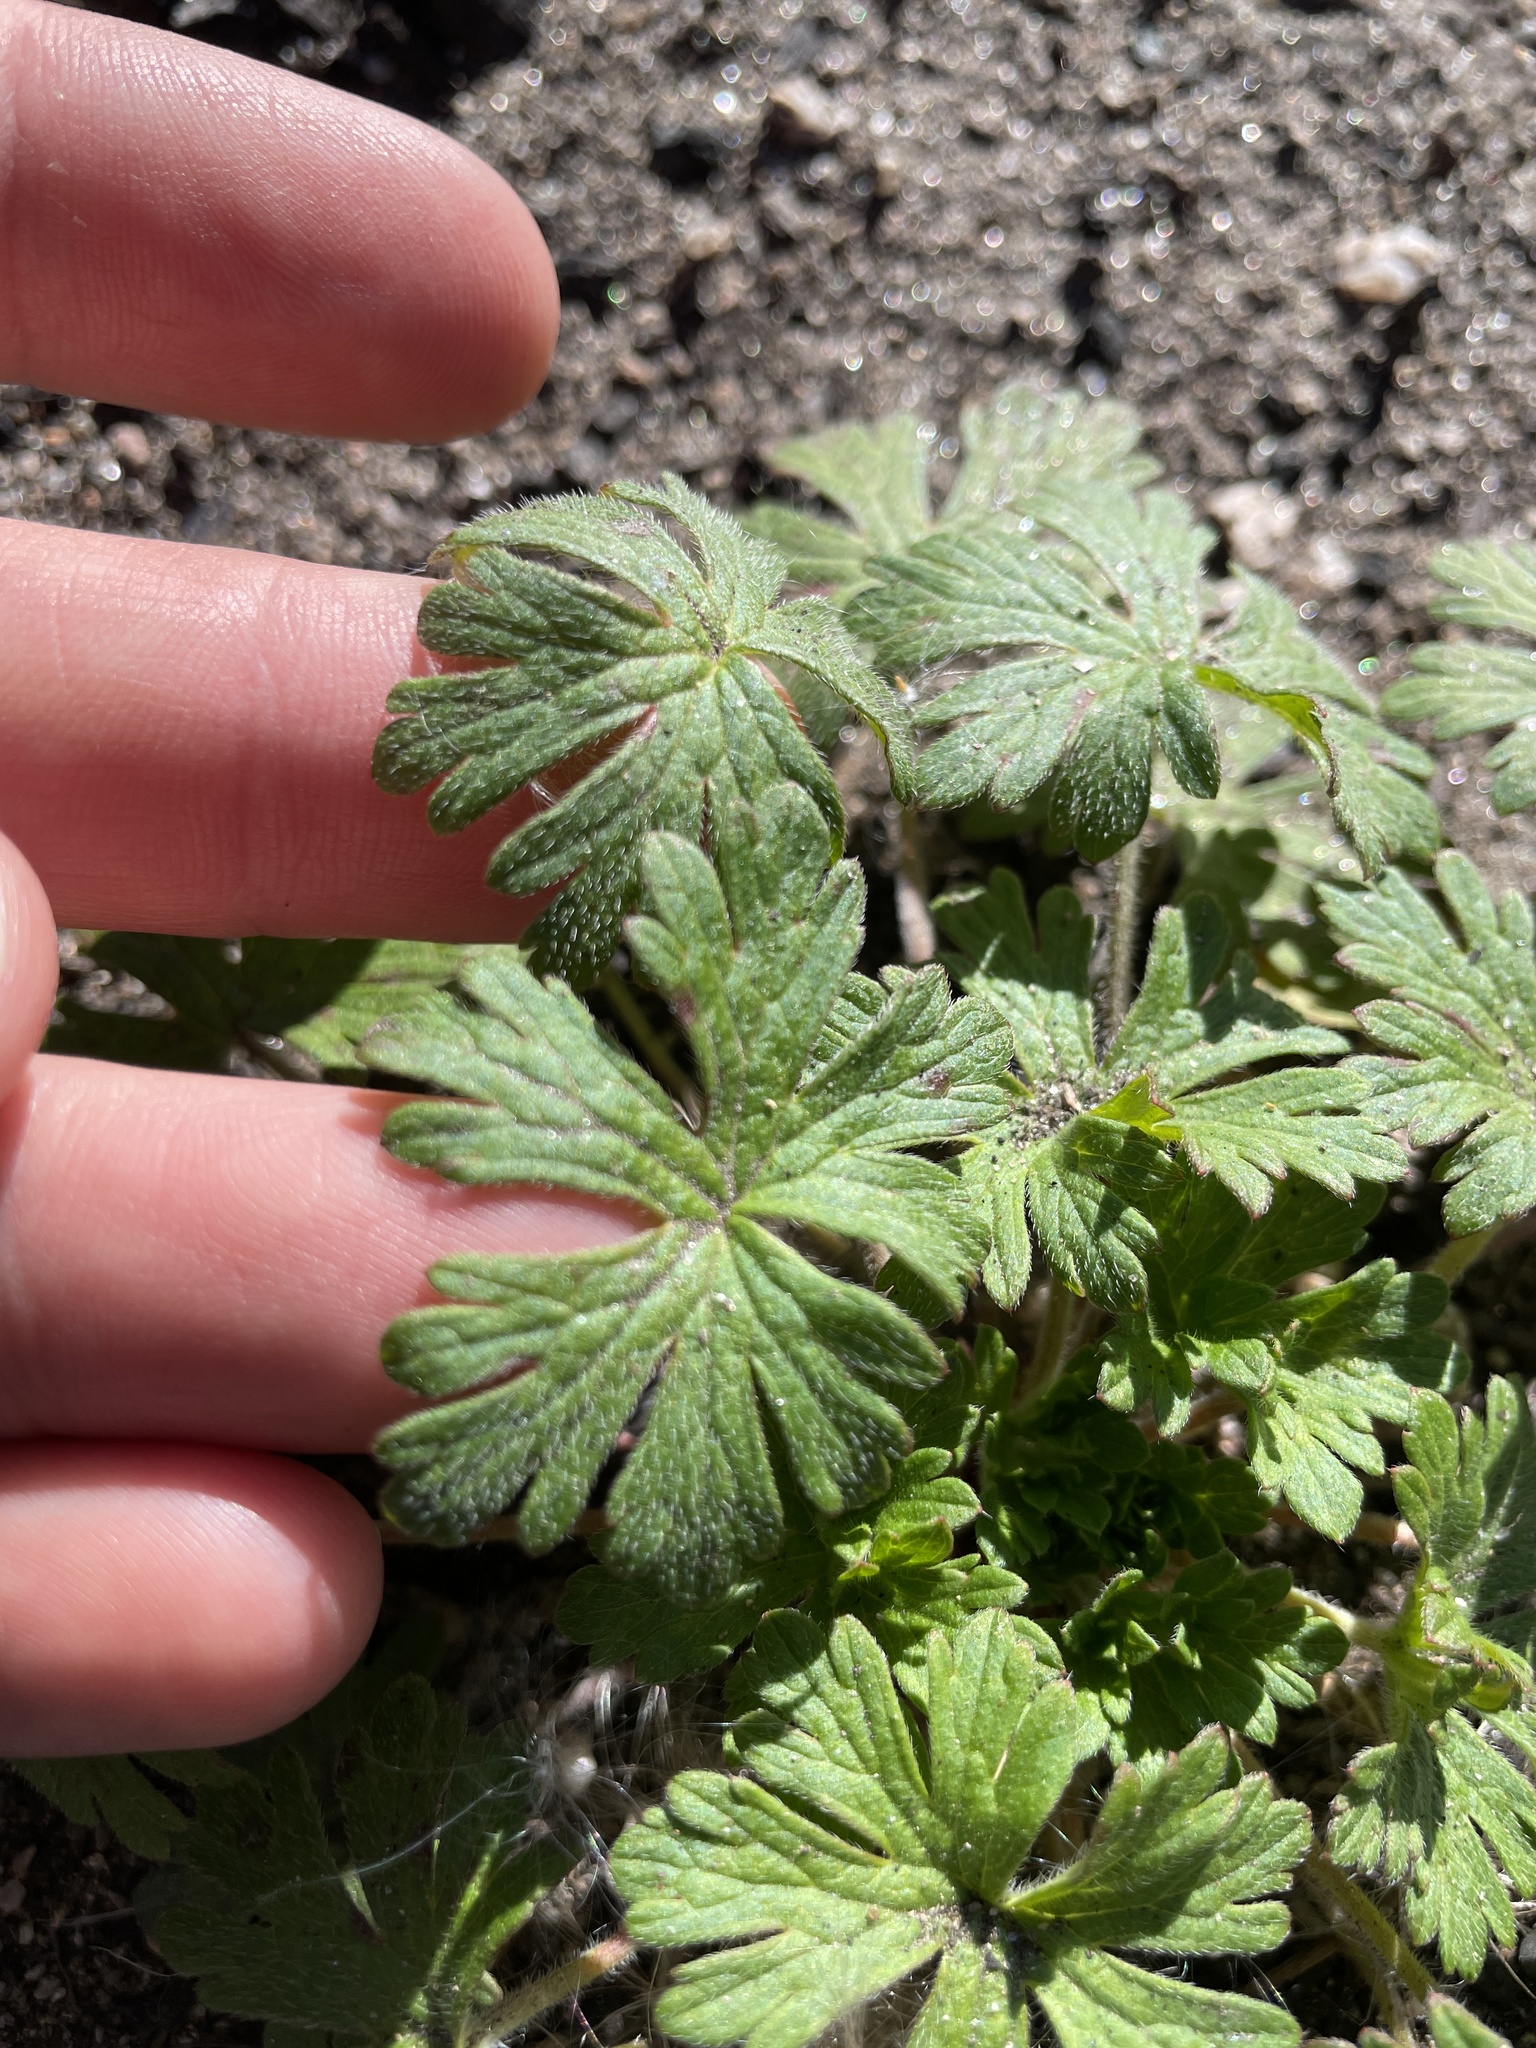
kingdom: Plantae
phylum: Tracheophyta
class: Magnoliopsida
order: Geraniales
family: Geraniaceae
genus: Geranium
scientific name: Geranium caespitosum
